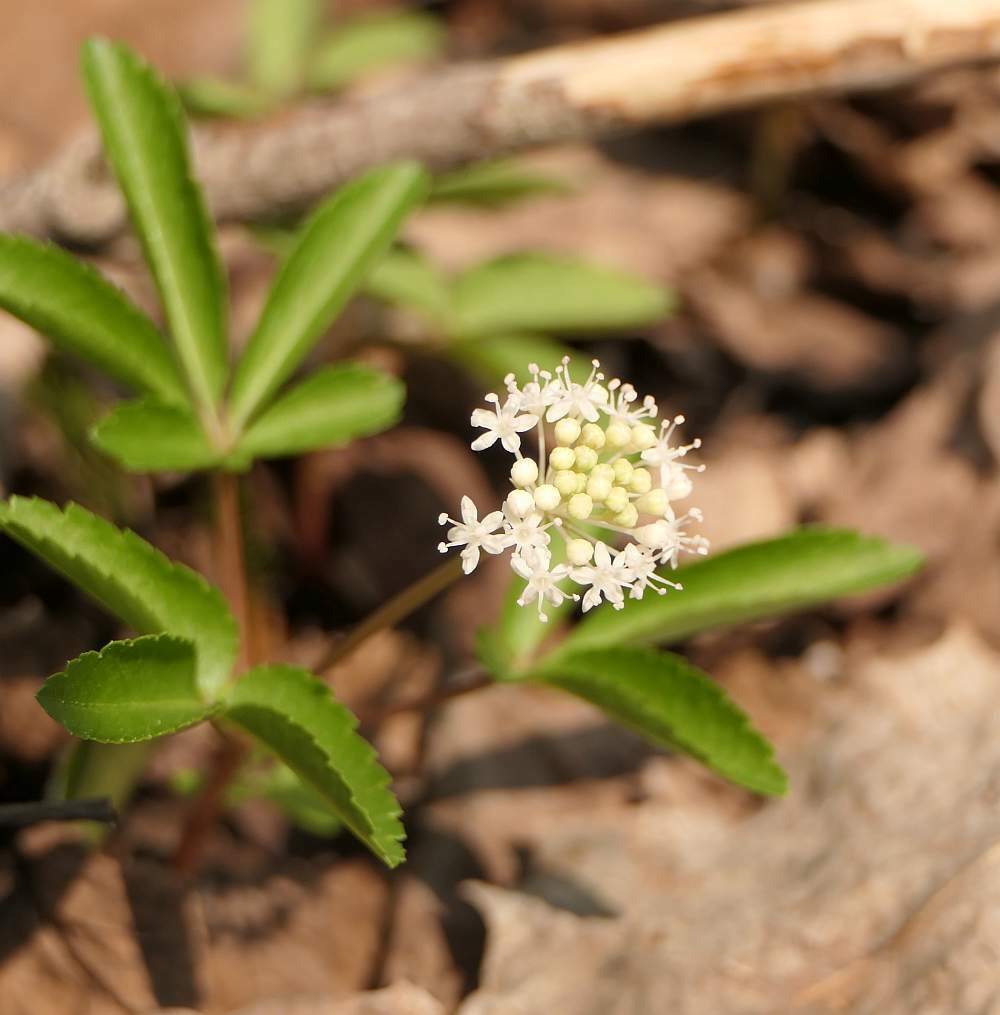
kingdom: Plantae
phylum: Tracheophyta
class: Magnoliopsida
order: Apiales
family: Araliaceae
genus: Panax
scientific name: Panax trifolius
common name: Dwarf ginseng
